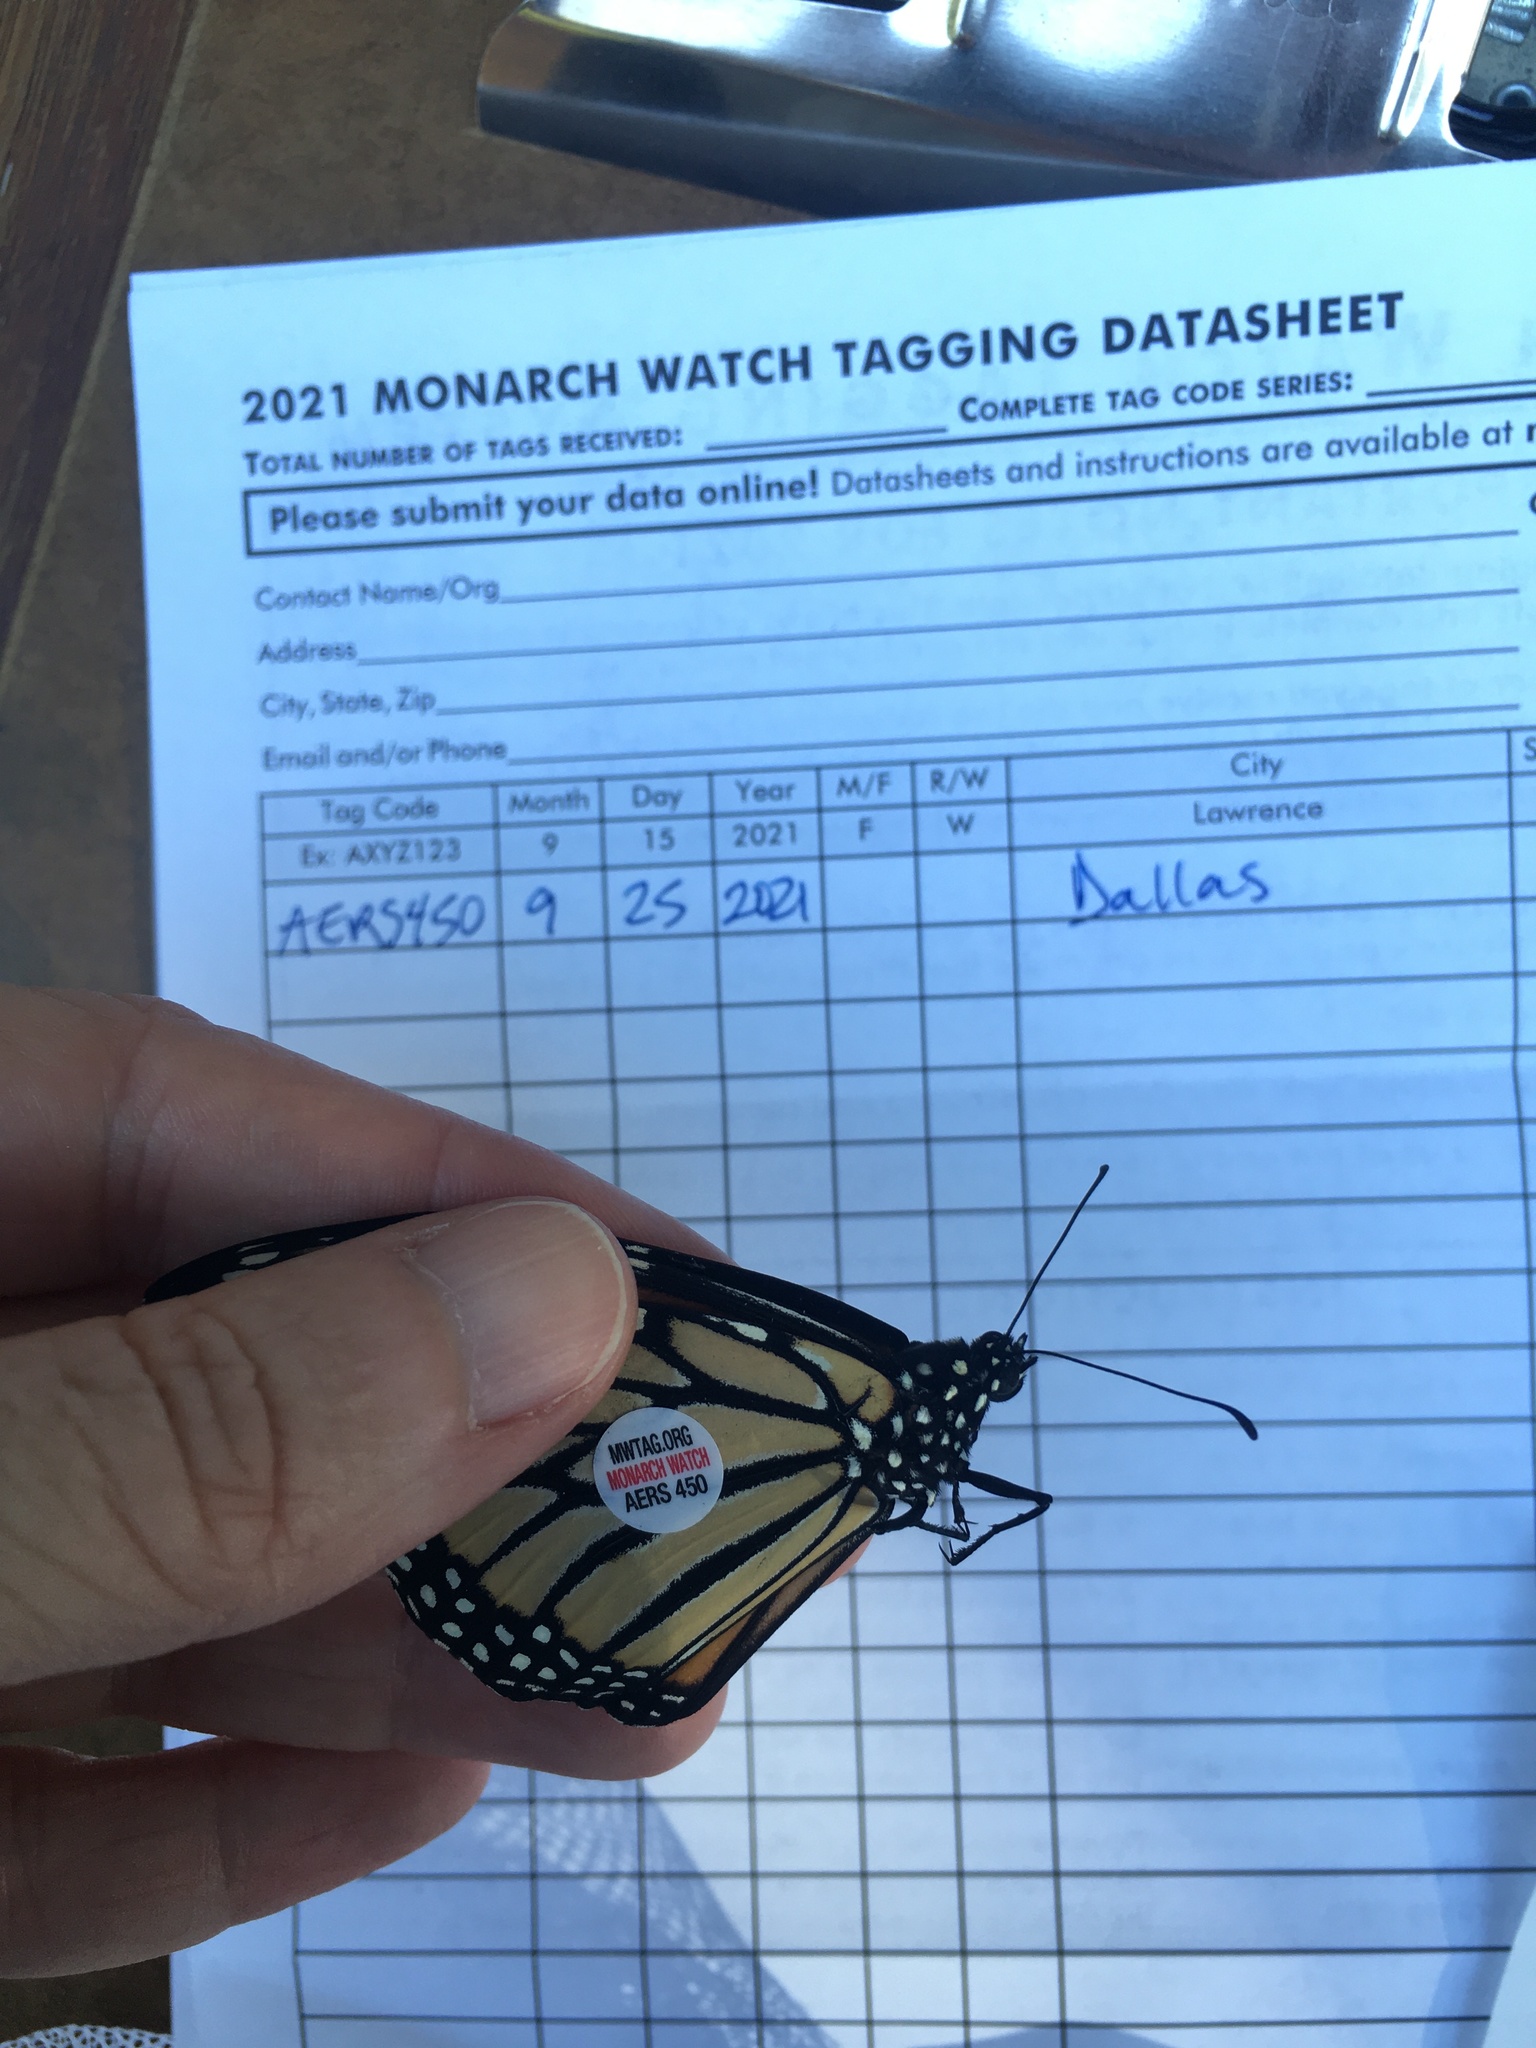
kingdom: Animalia
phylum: Arthropoda
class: Insecta
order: Lepidoptera
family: Nymphalidae
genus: Danaus
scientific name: Danaus plexippus
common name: Monarch
